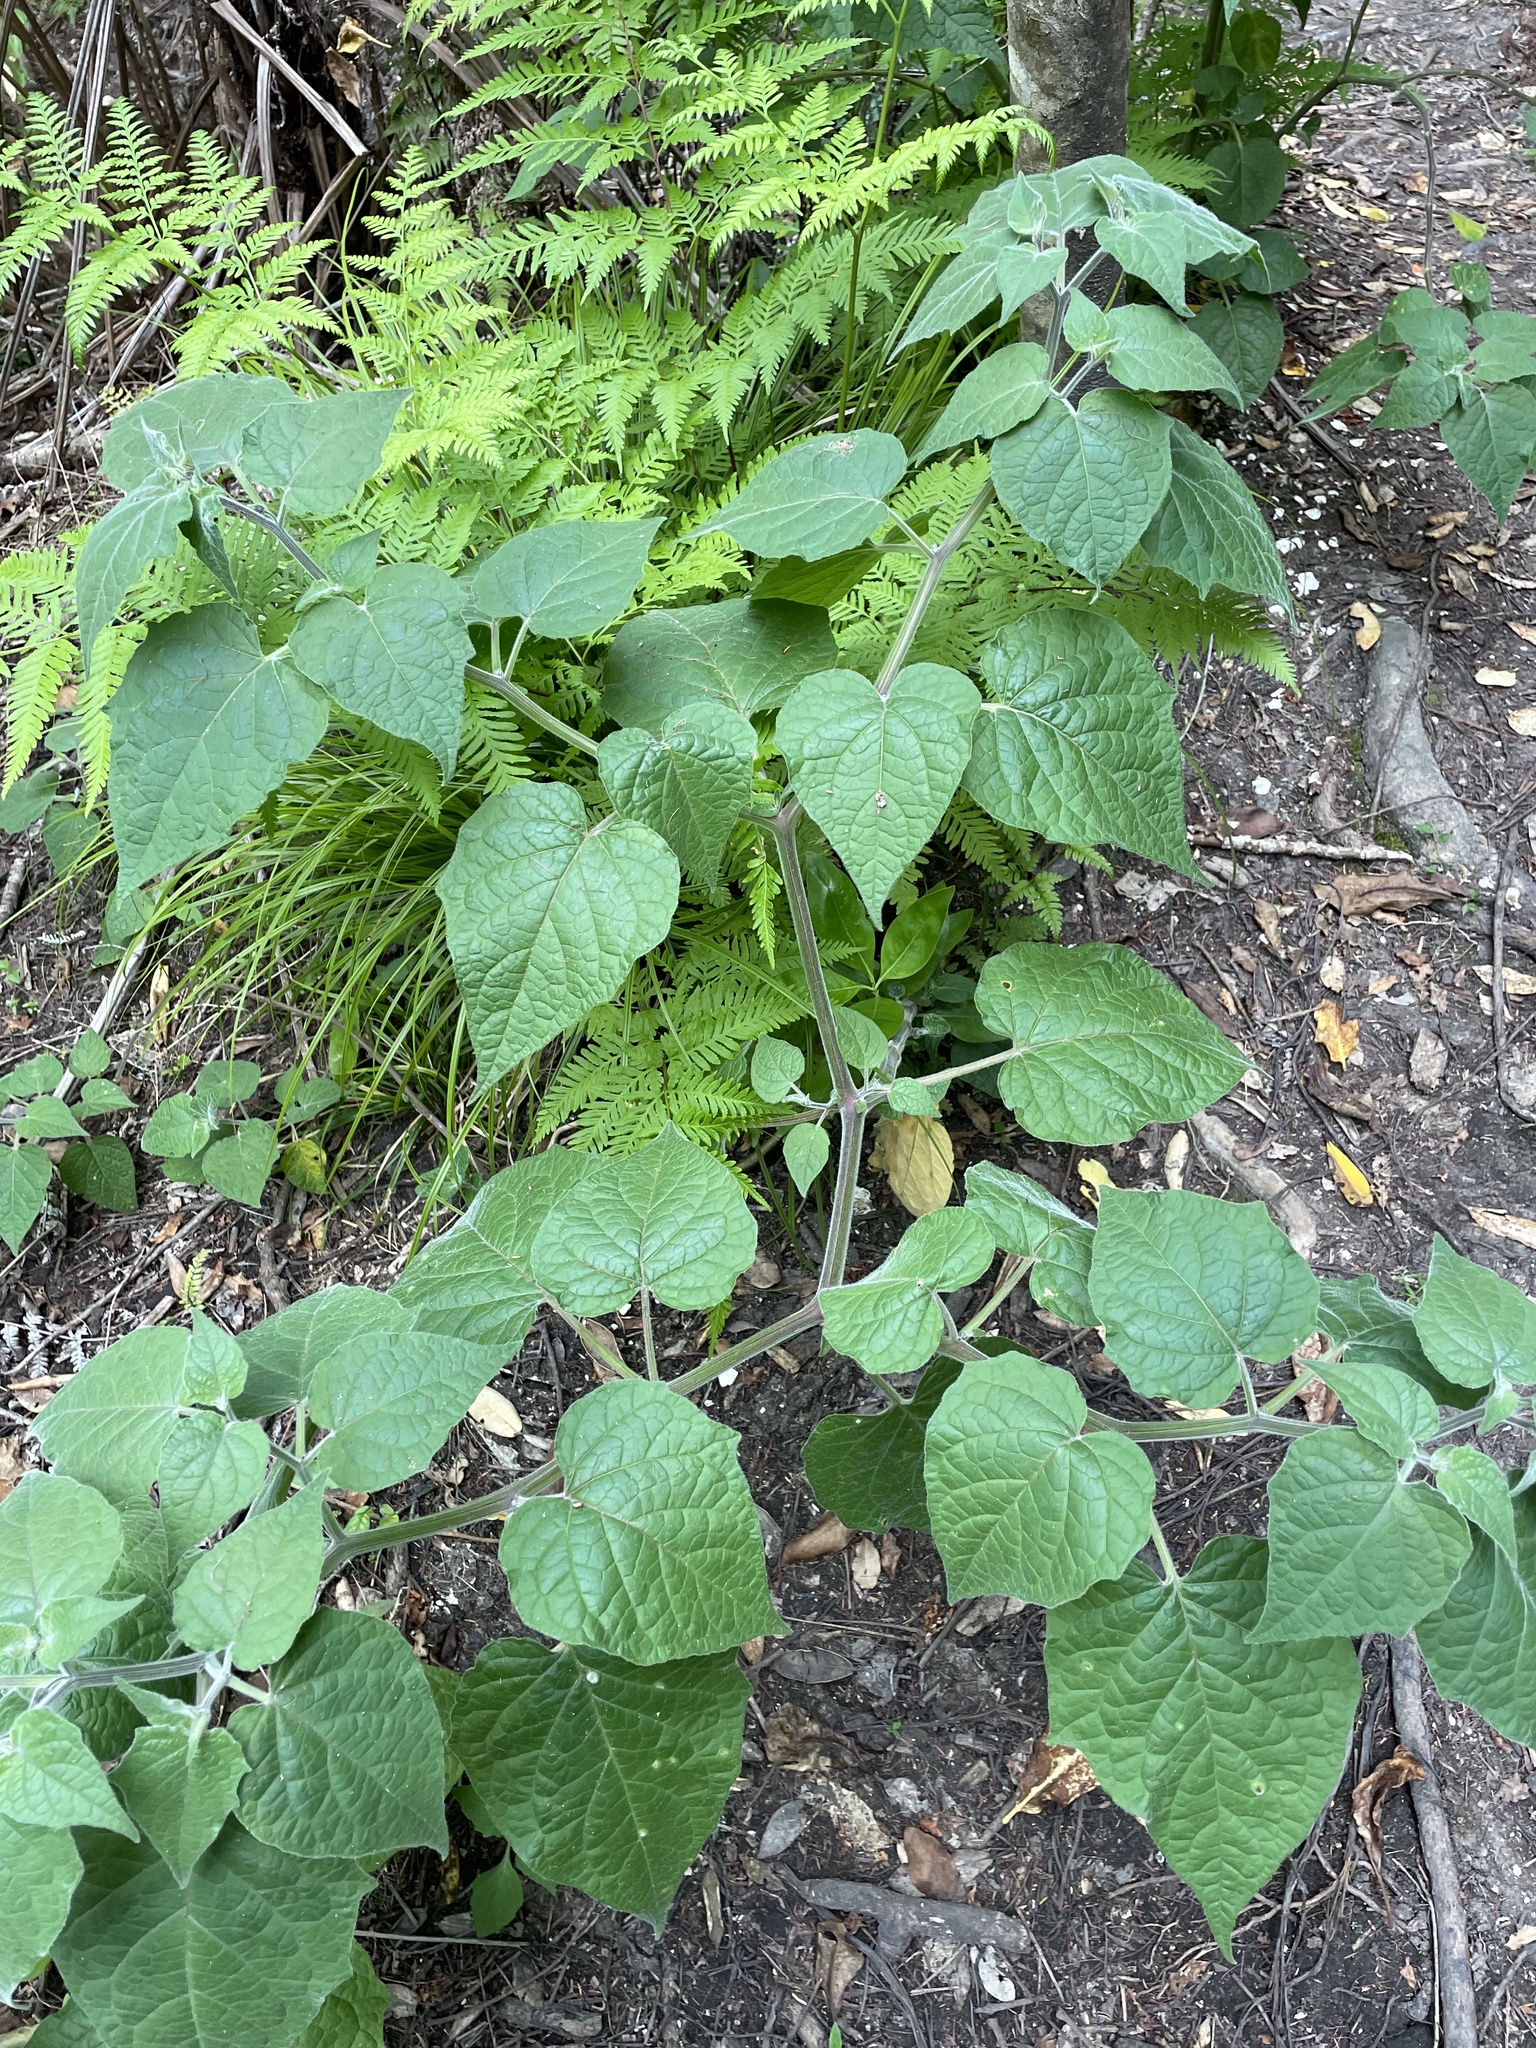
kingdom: Plantae
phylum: Tracheophyta
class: Magnoliopsida
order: Solanales
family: Solanaceae
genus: Physalis
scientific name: Physalis peruviana
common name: Cape-gooseberry
